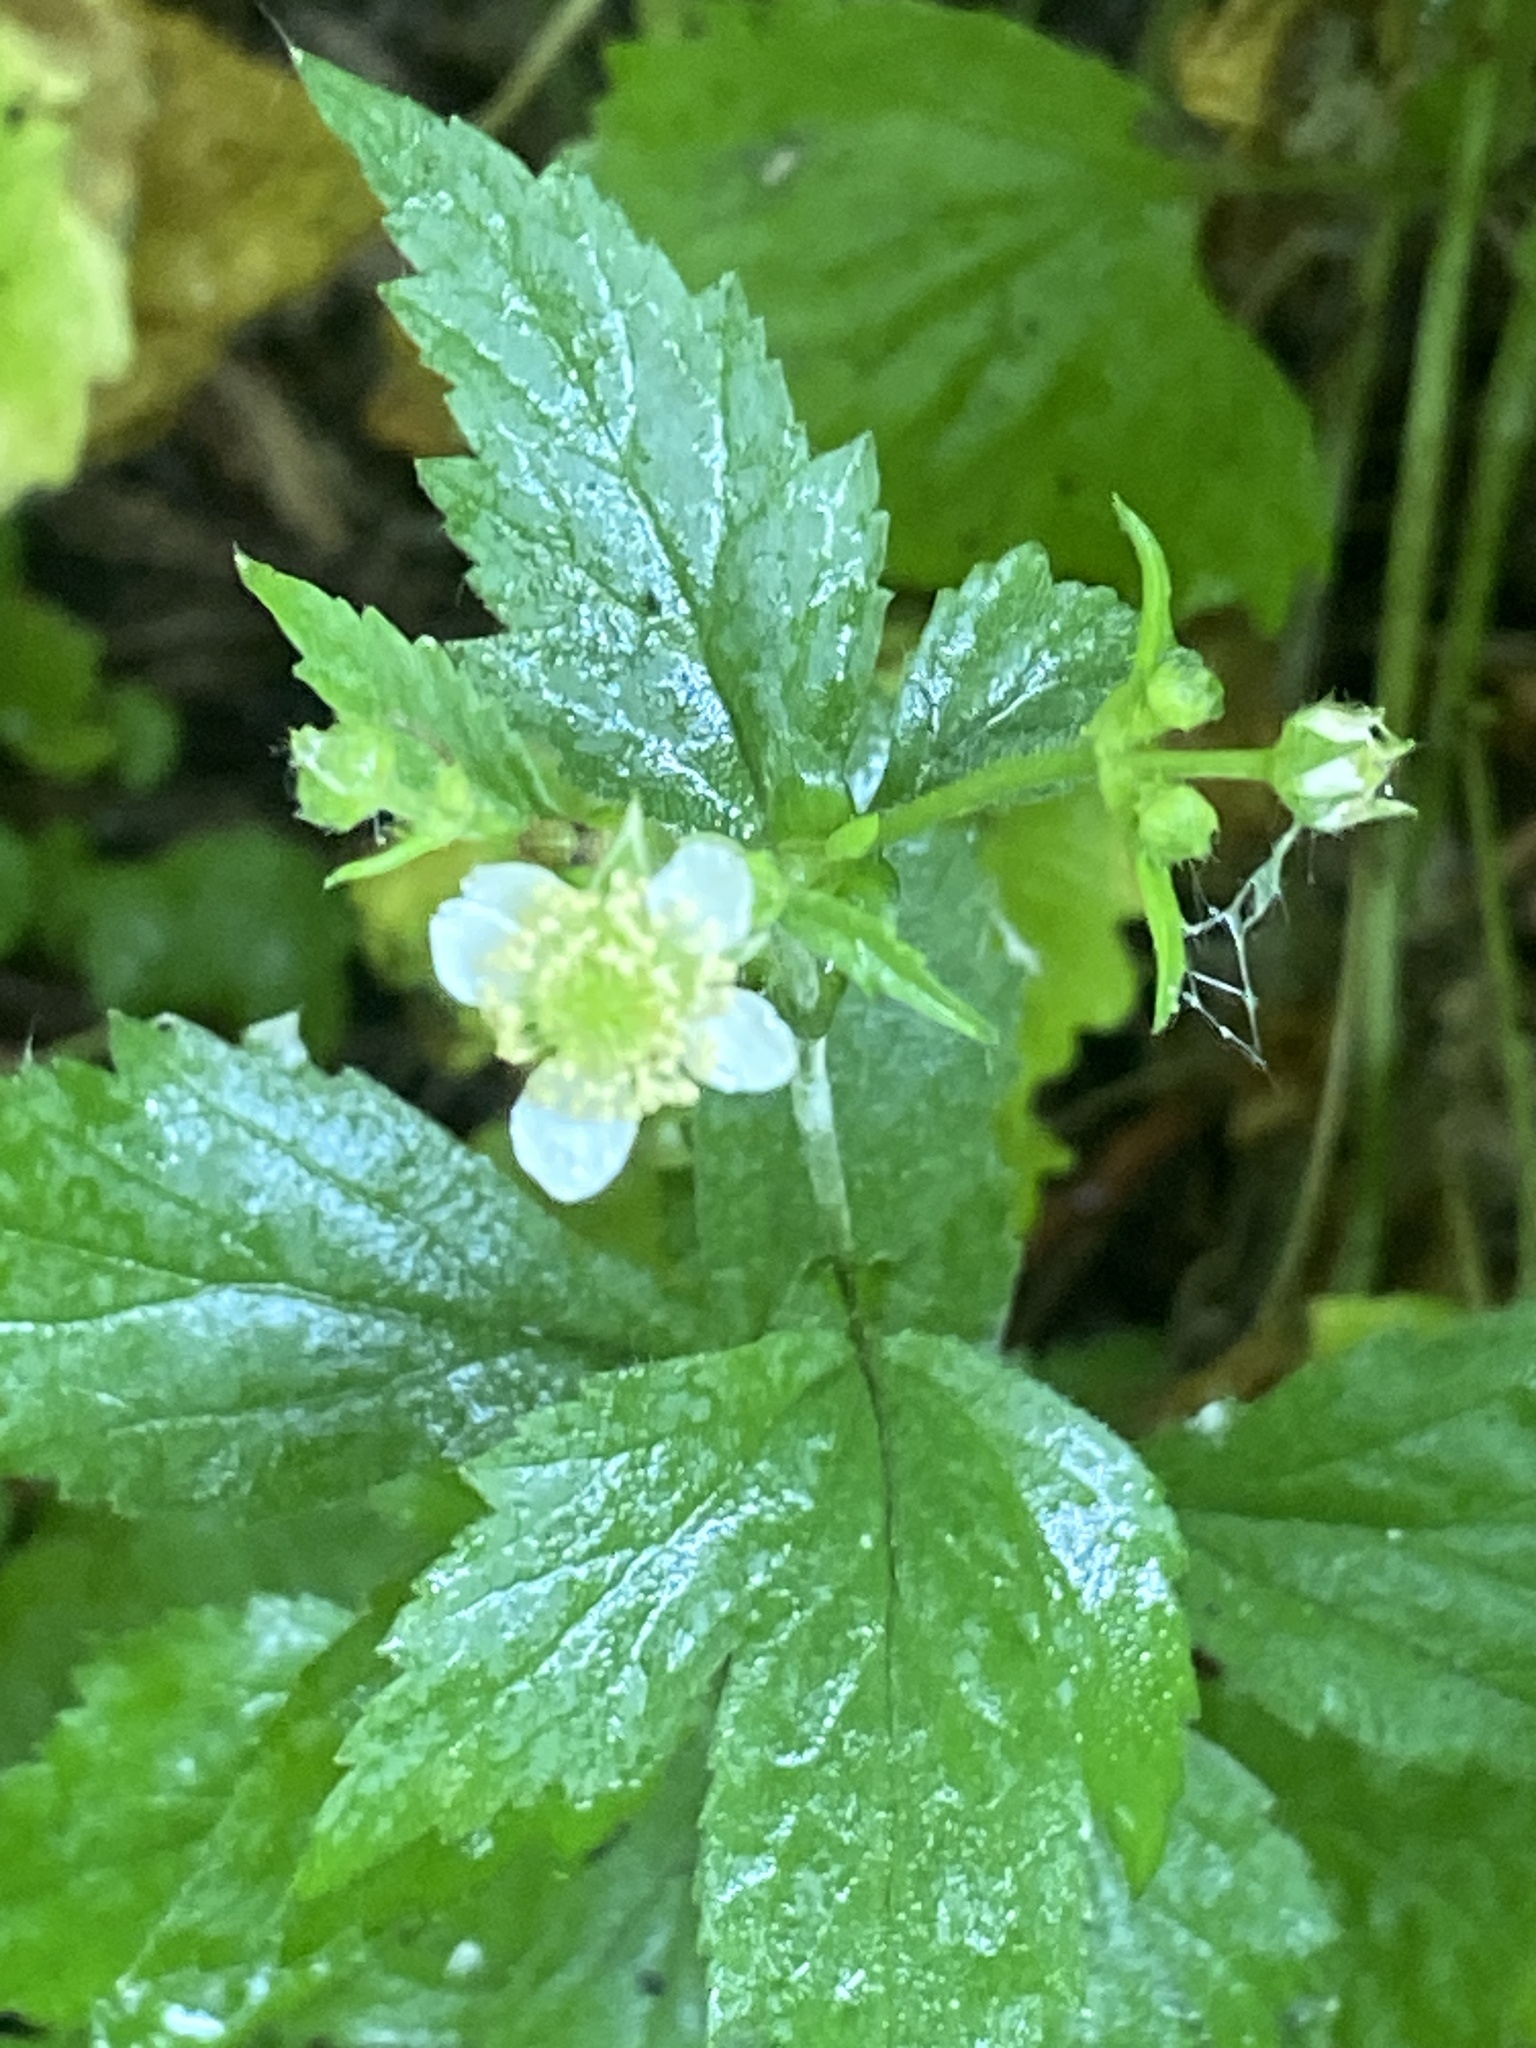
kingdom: Plantae
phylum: Tracheophyta
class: Magnoliopsida
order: Rosales
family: Rosaceae
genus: Geum
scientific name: Geum canadense
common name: White avens
